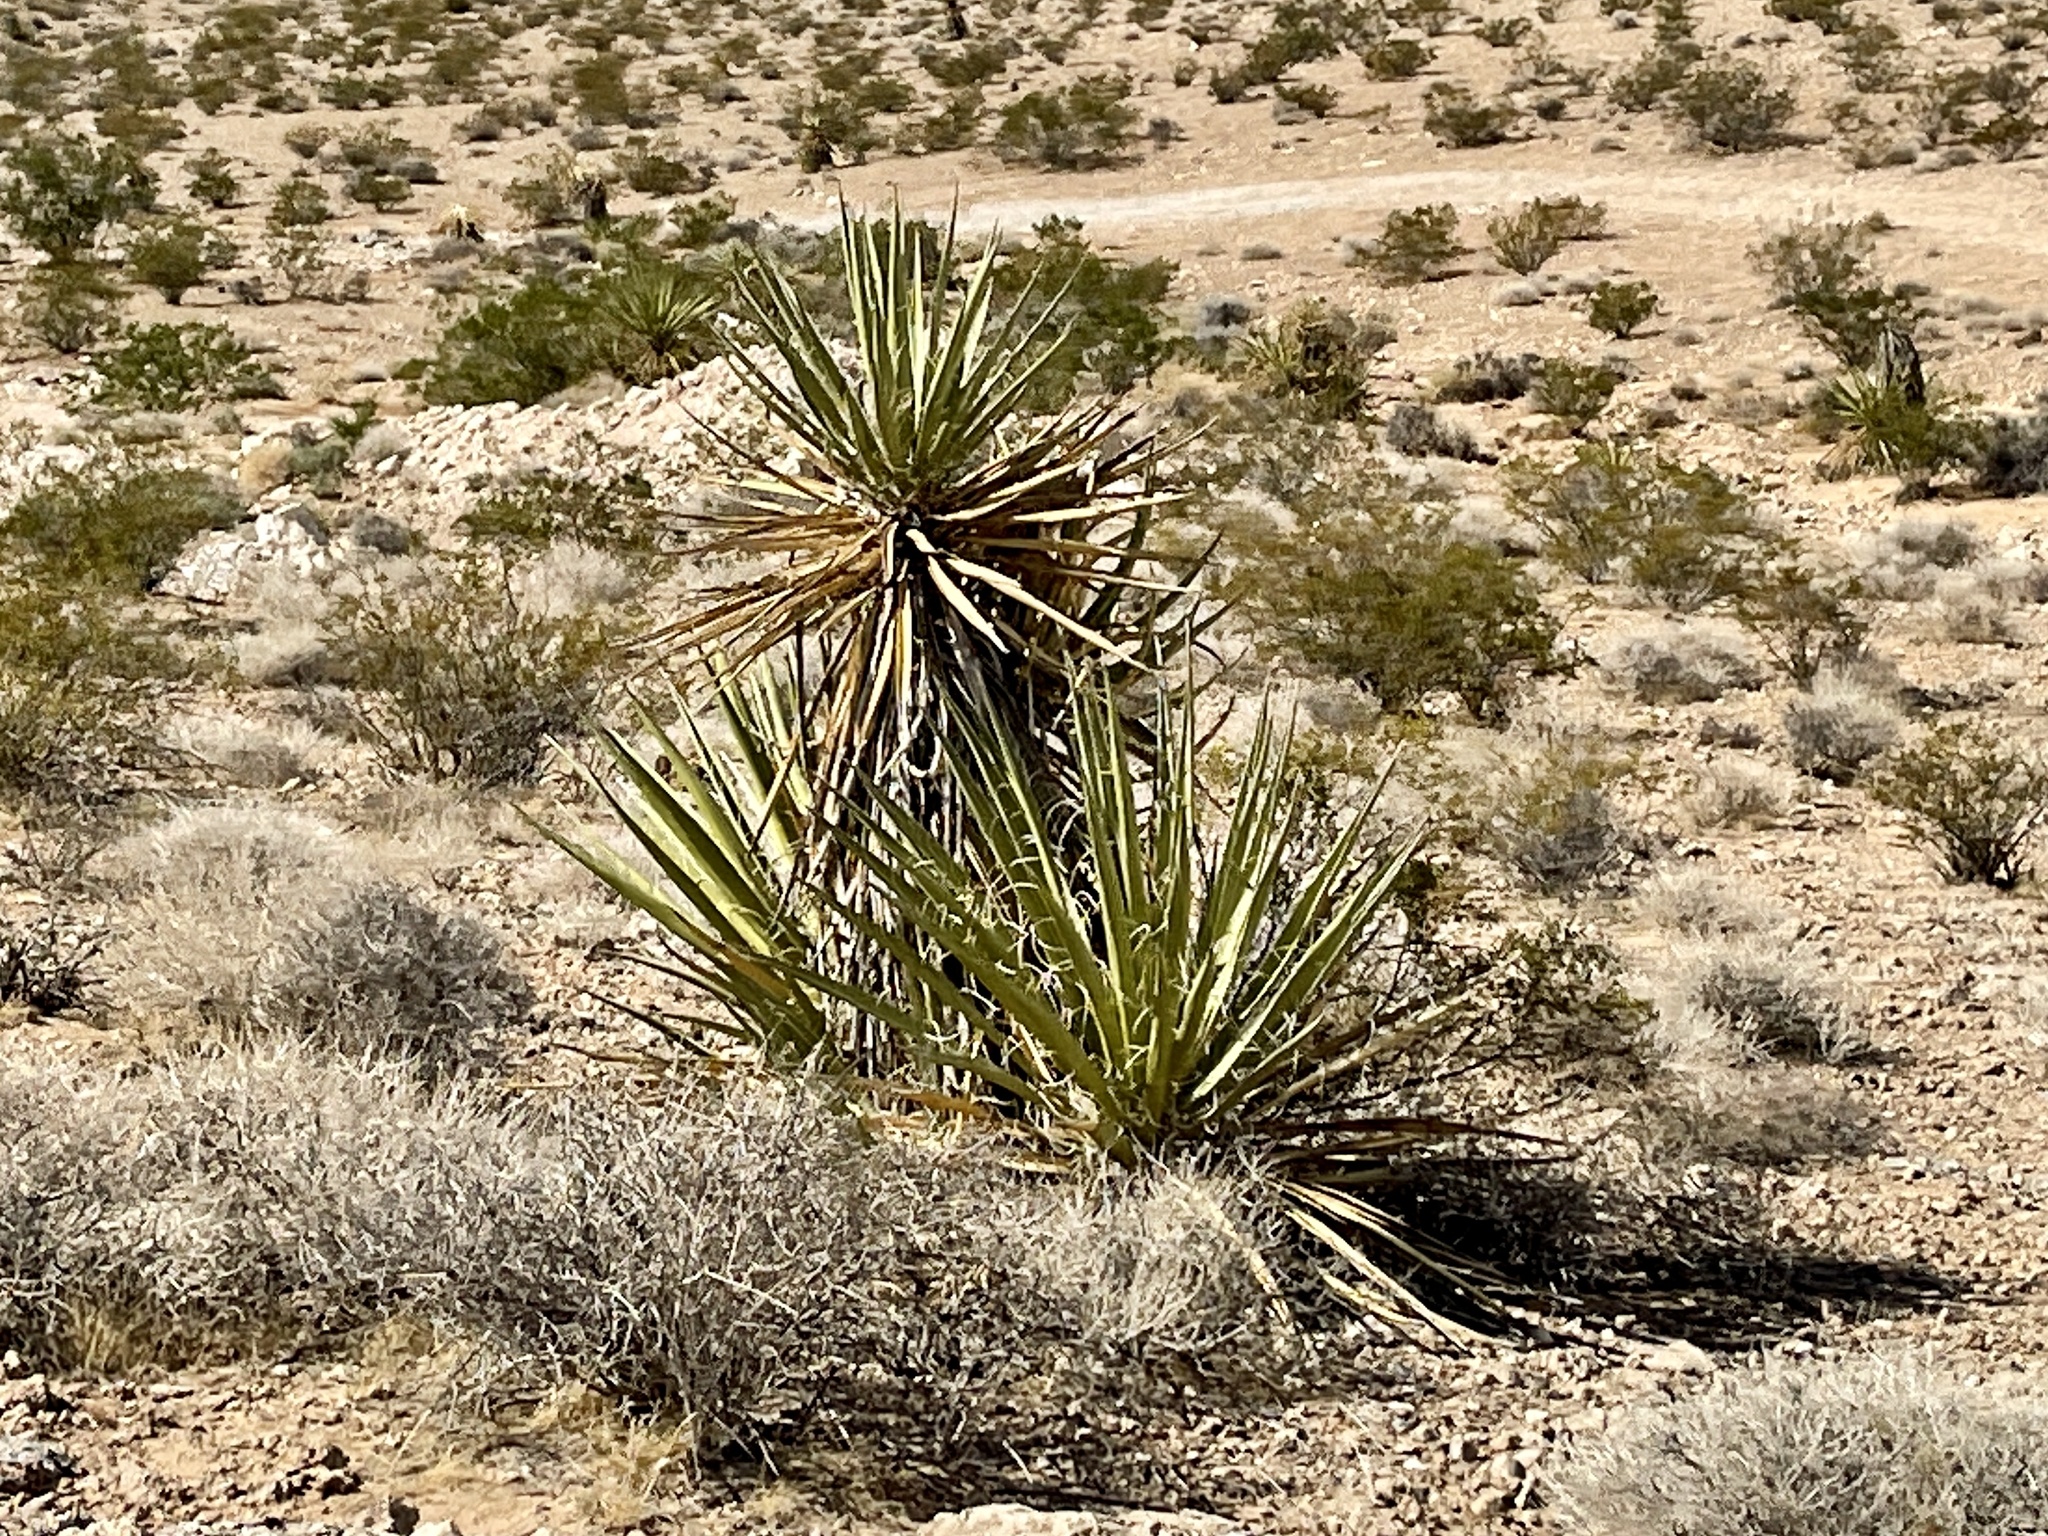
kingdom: Plantae
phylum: Tracheophyta
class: Liliopsida
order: Asparagales
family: Asparagaceae
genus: Yucca
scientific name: Yucca schidigera
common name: Mojave yucca
